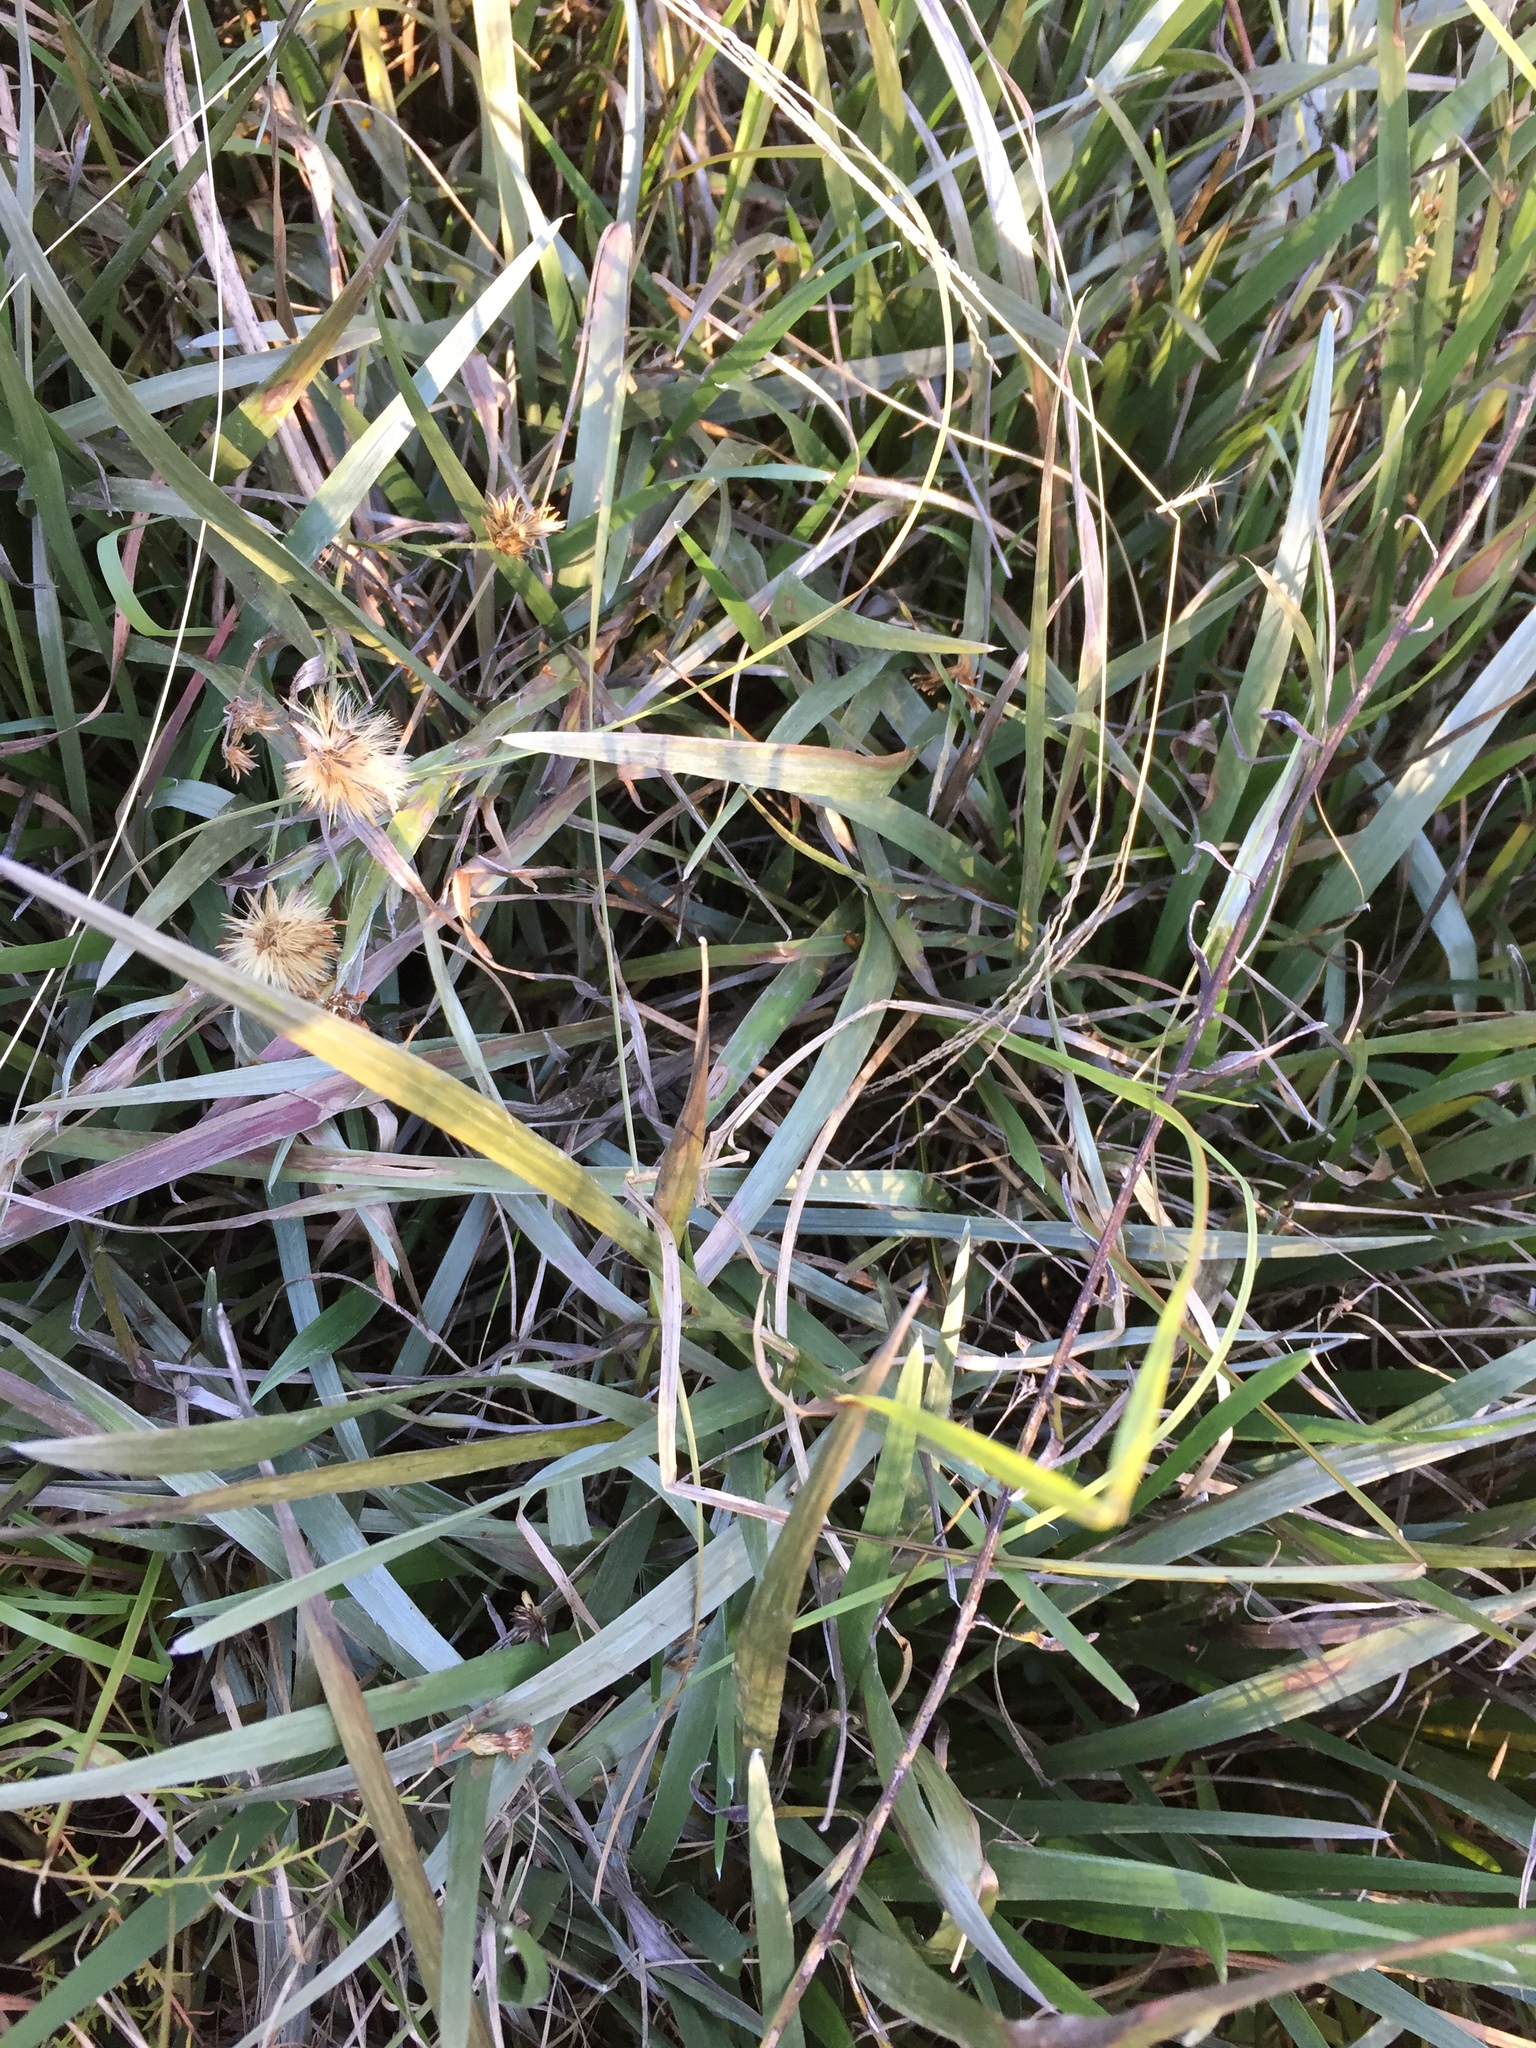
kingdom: Plantae
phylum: Tracheophyta
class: Magnoliopsida
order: Asterales
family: Asteraceae
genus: Pityopsis
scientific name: Pityopsis graminifolia
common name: Grass-leaf golden-aster
